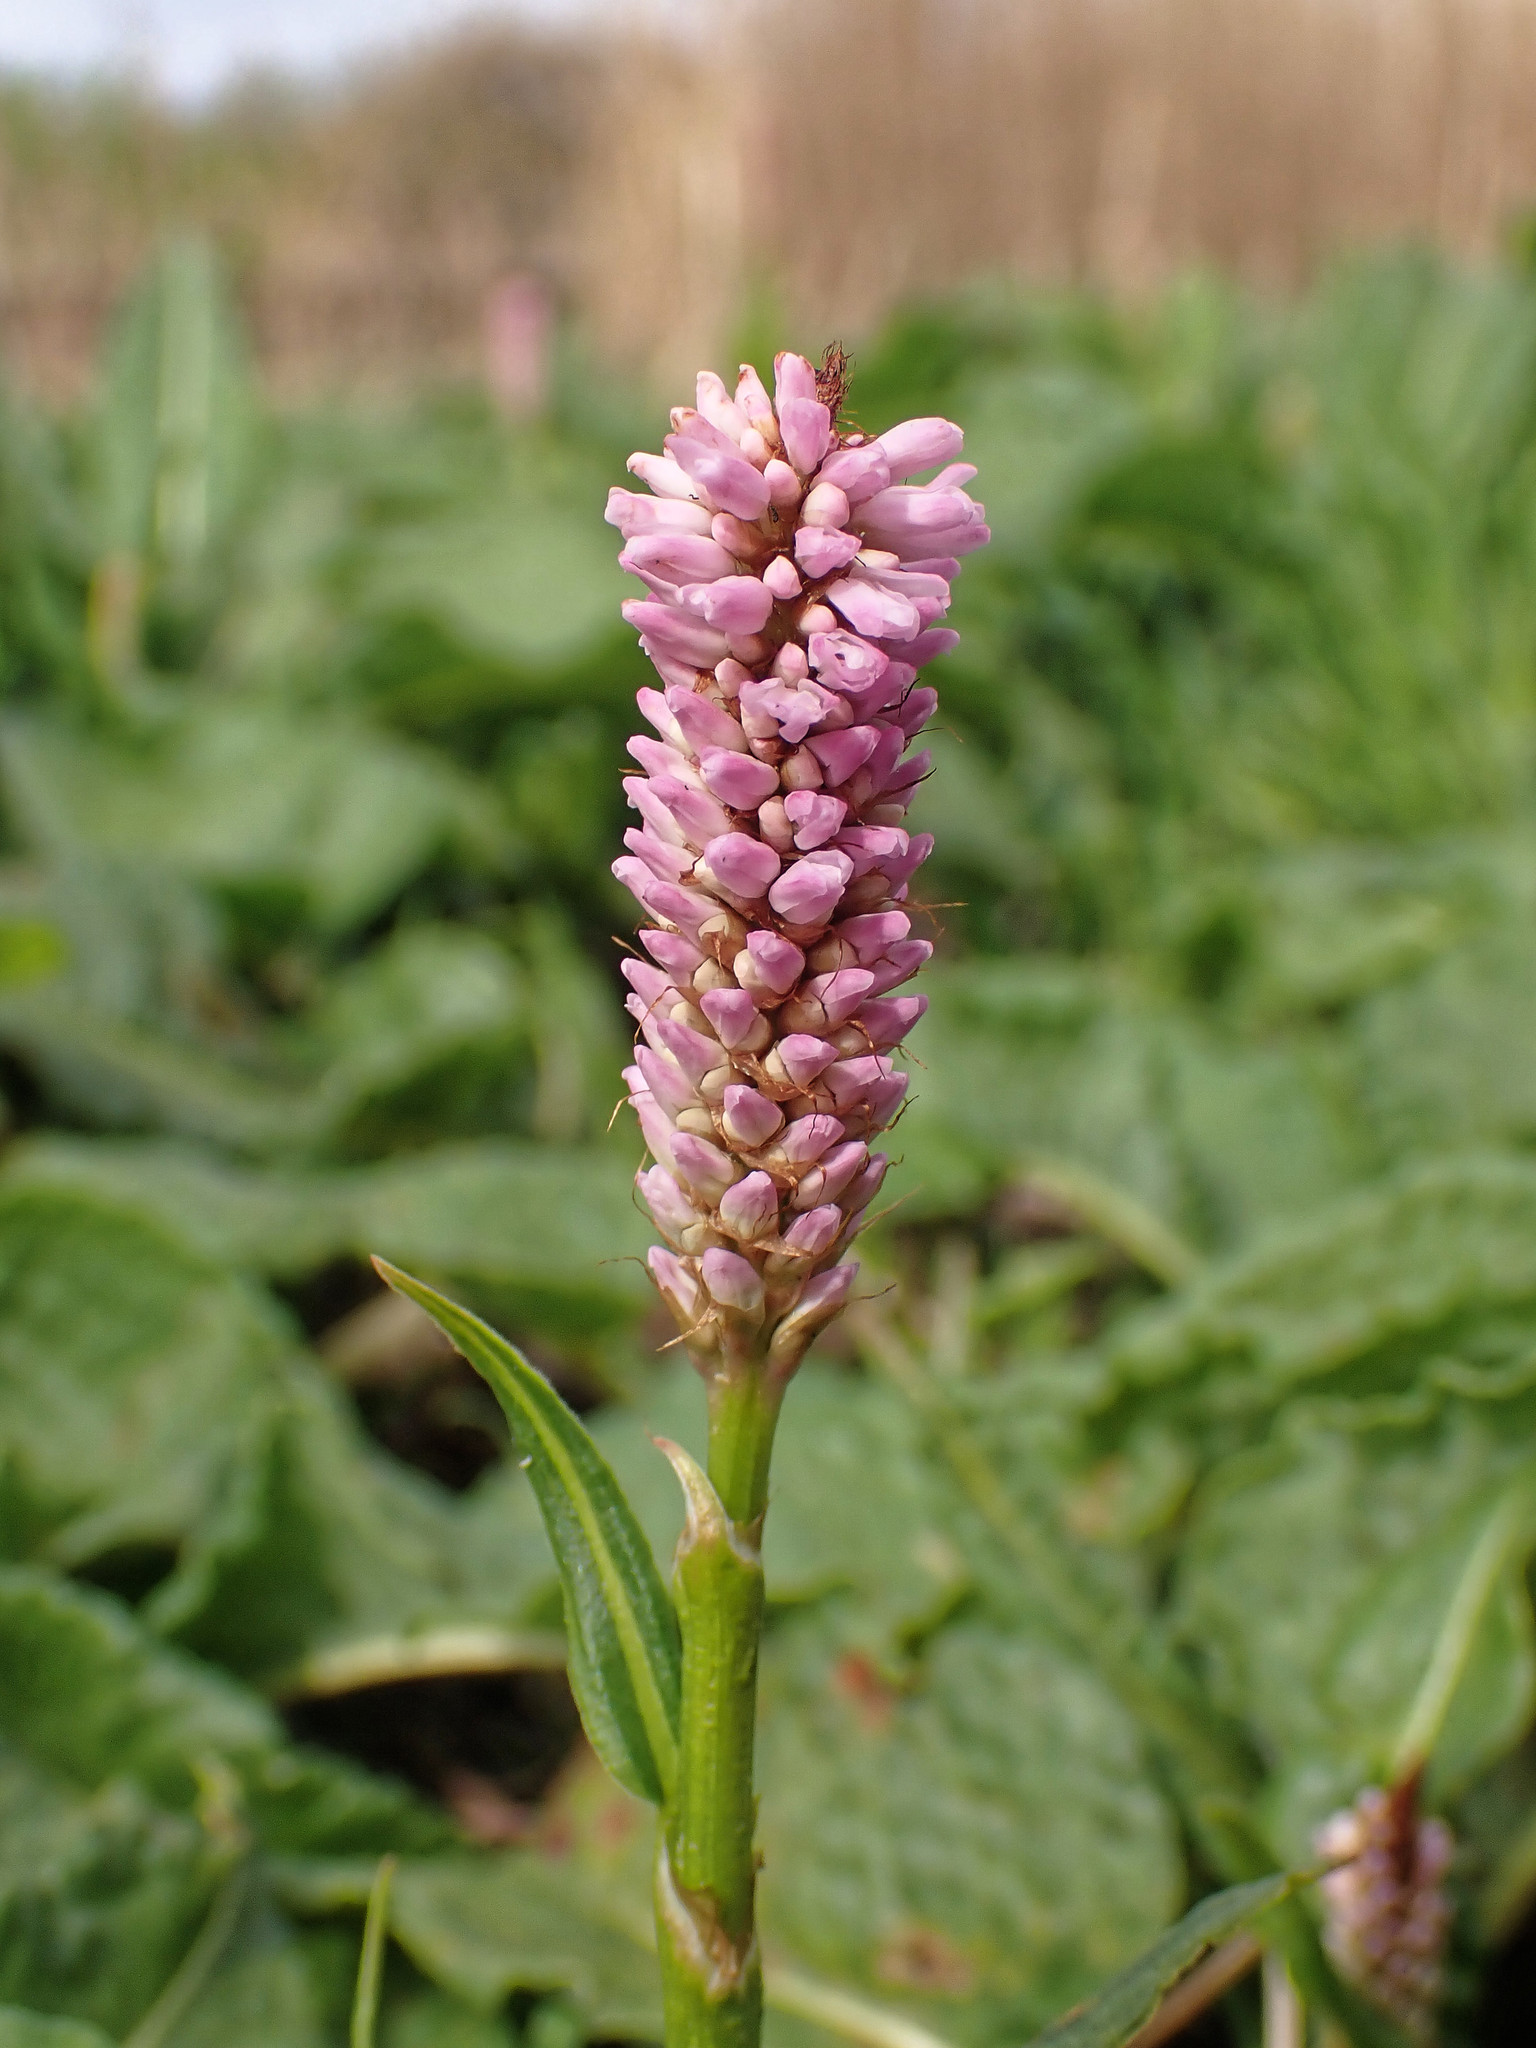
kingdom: Plantae
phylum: Tracheophyta
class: Magnoliopsida
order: Caryophyllales
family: Polygonaceae
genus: Bistorta
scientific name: Bistorta officinalis
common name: Common bistort
